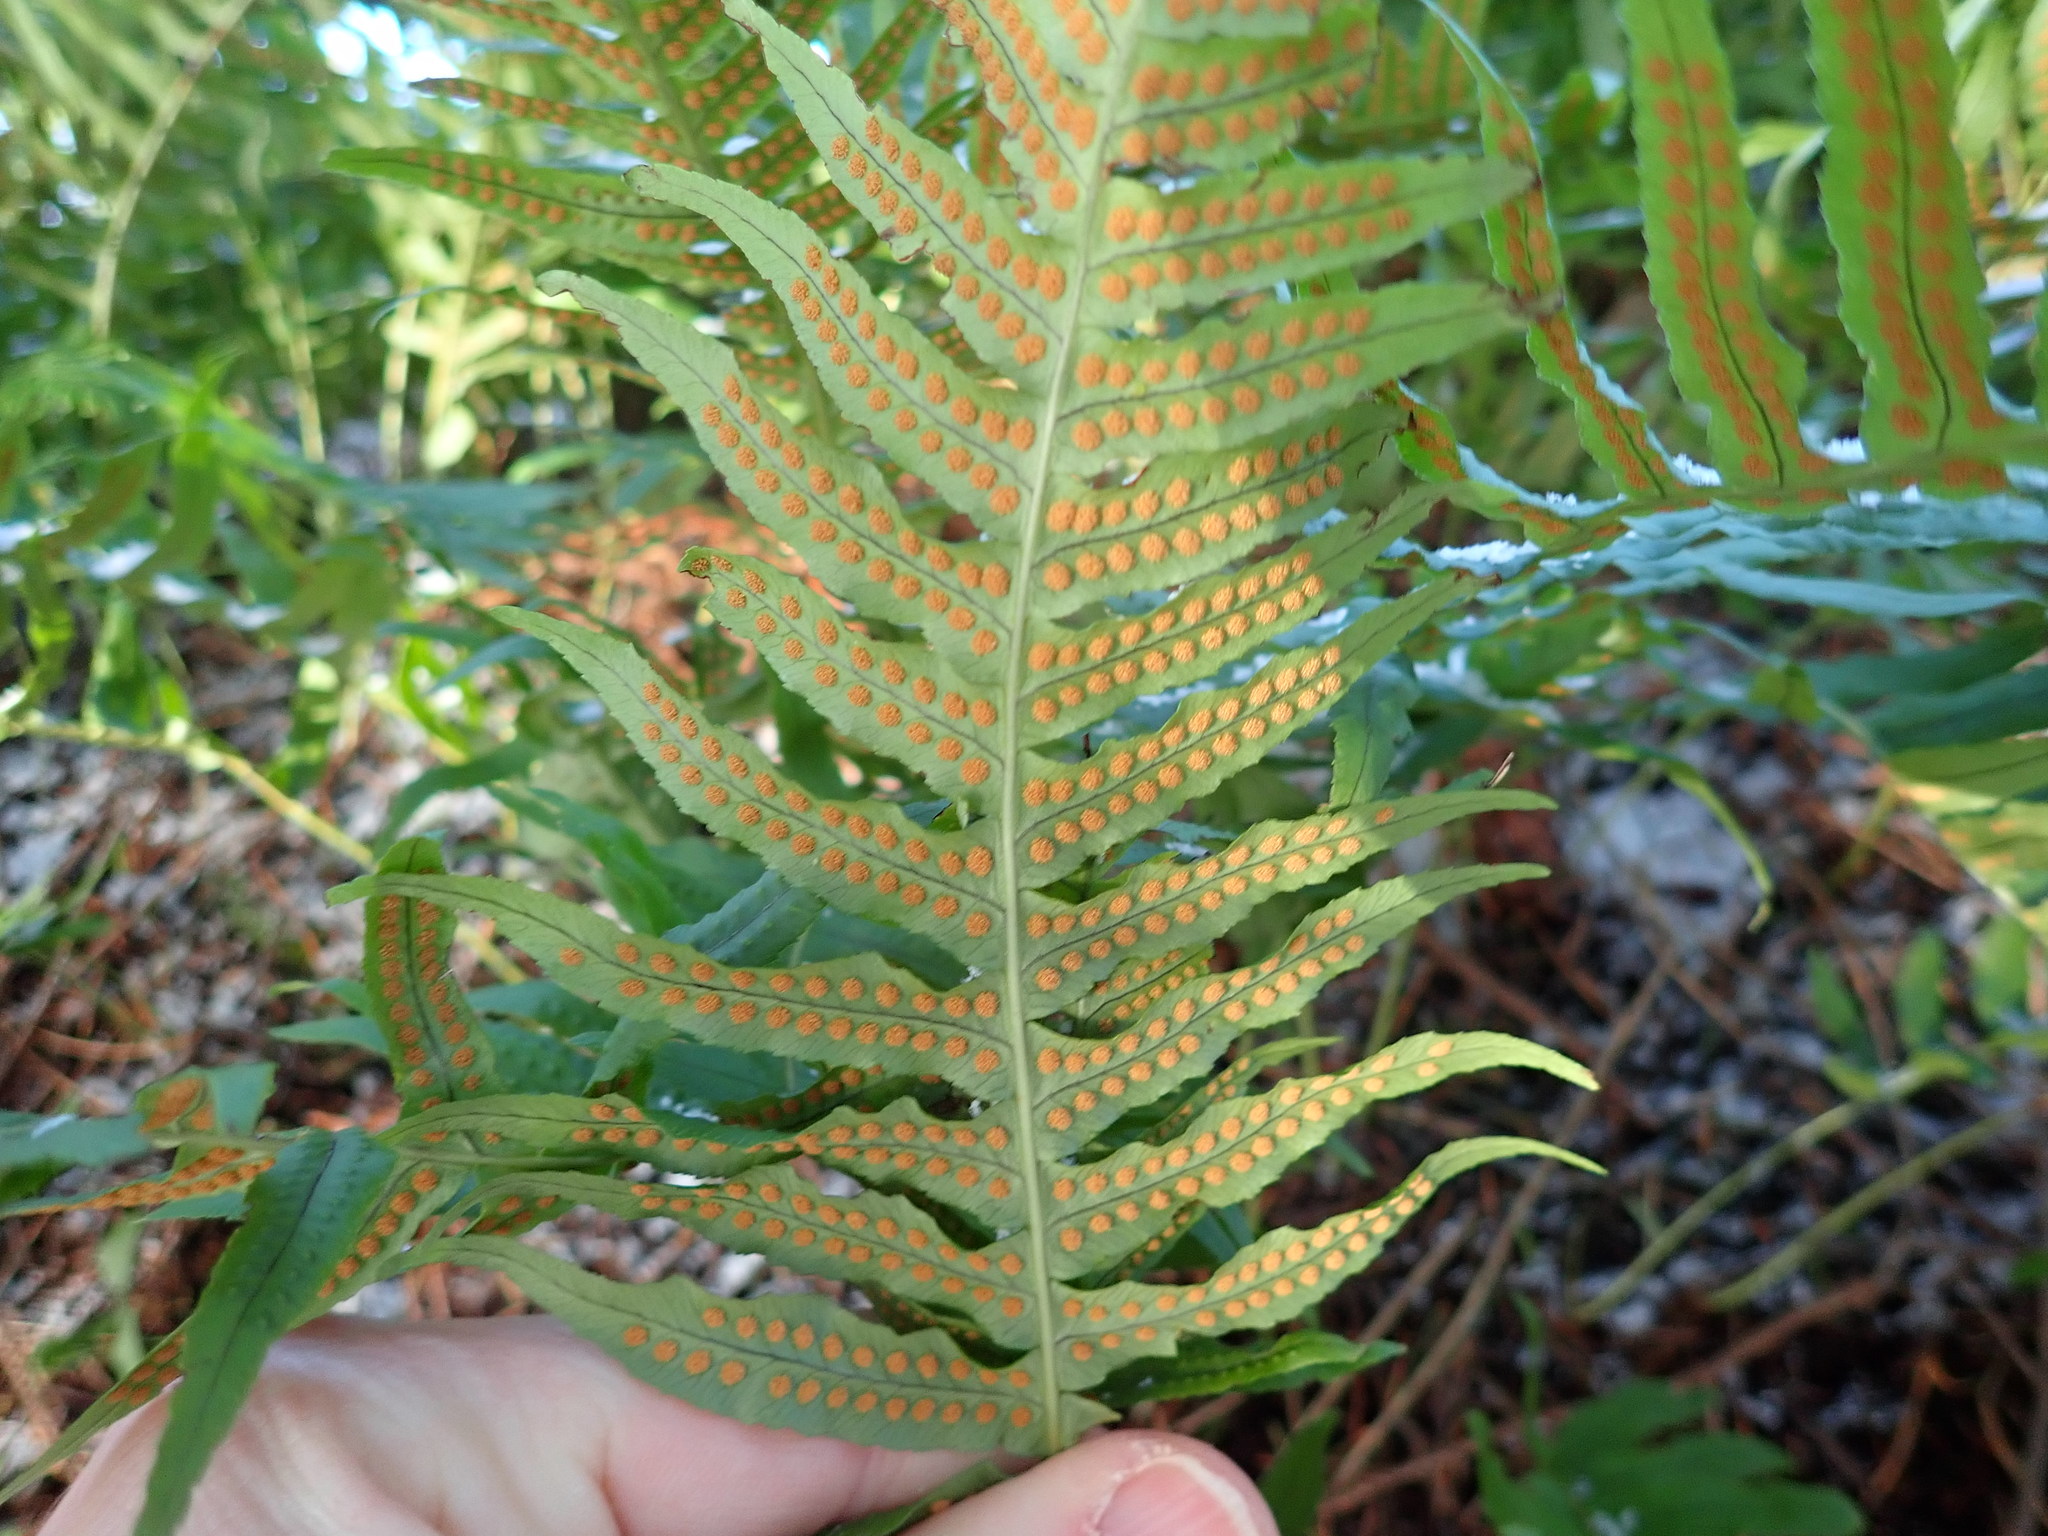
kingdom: Plantae
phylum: Tracheophyta
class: Polypodiopsida
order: Polypodiales
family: Polypodiaceae
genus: Polypodium
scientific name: Polypodium glycyrrhiza
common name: Licorice fern
